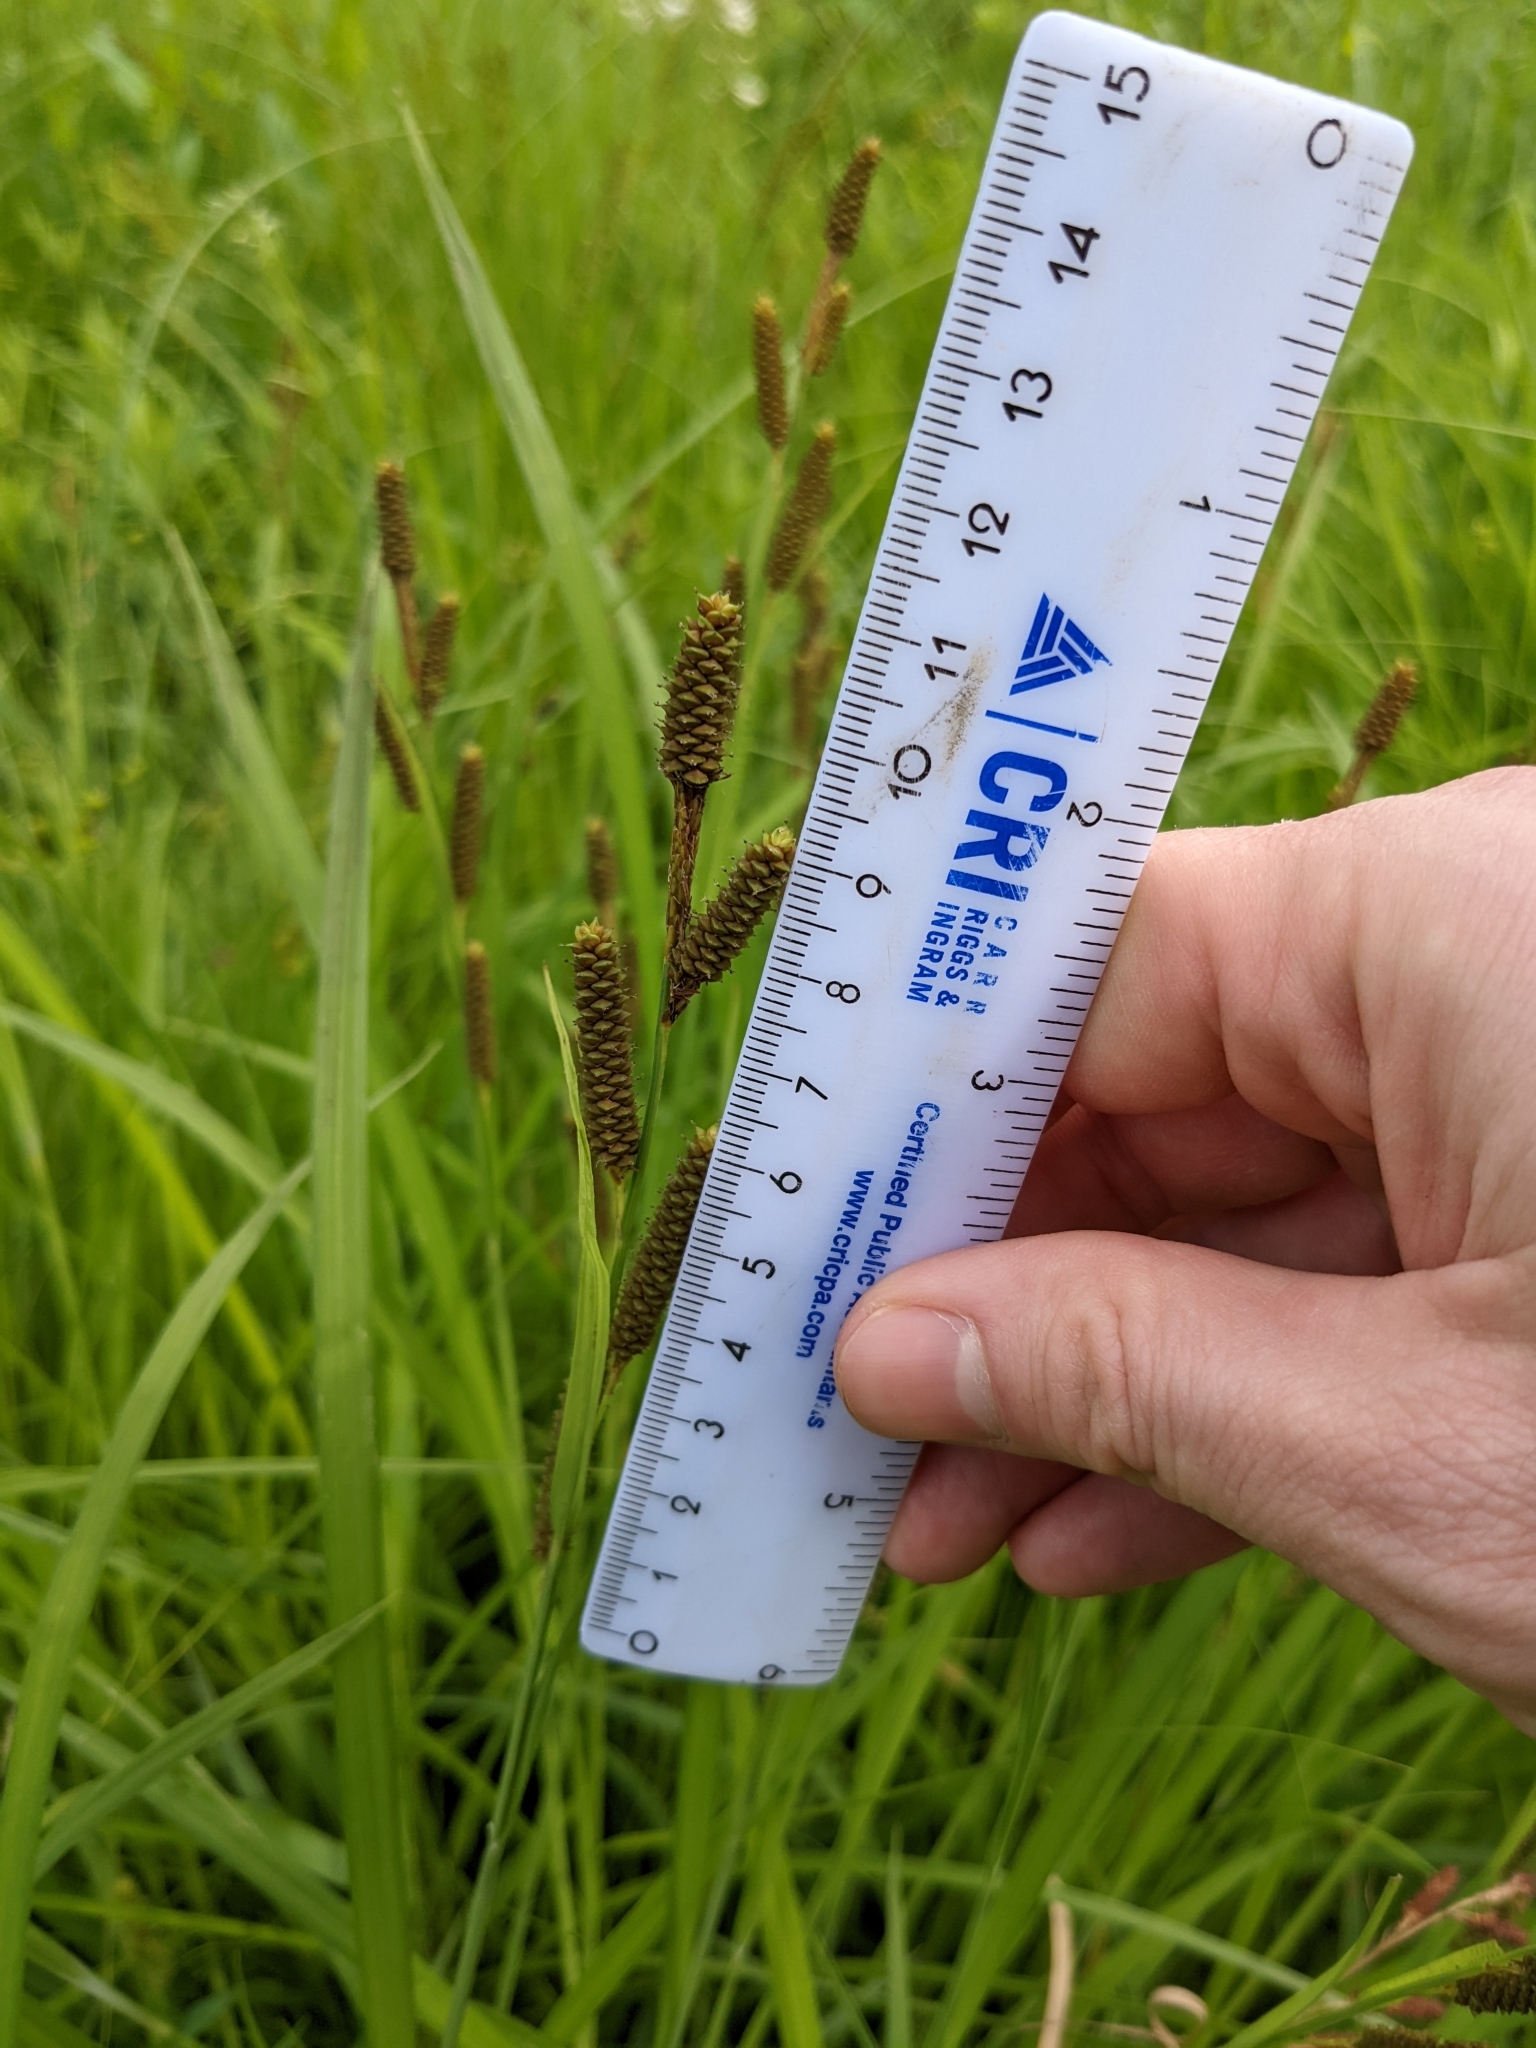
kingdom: Plantae
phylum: Tracheophyta
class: Liliopsida
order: Poales
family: Cyperaceae
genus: Carex
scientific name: Carex shortiana
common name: Short's sedge
